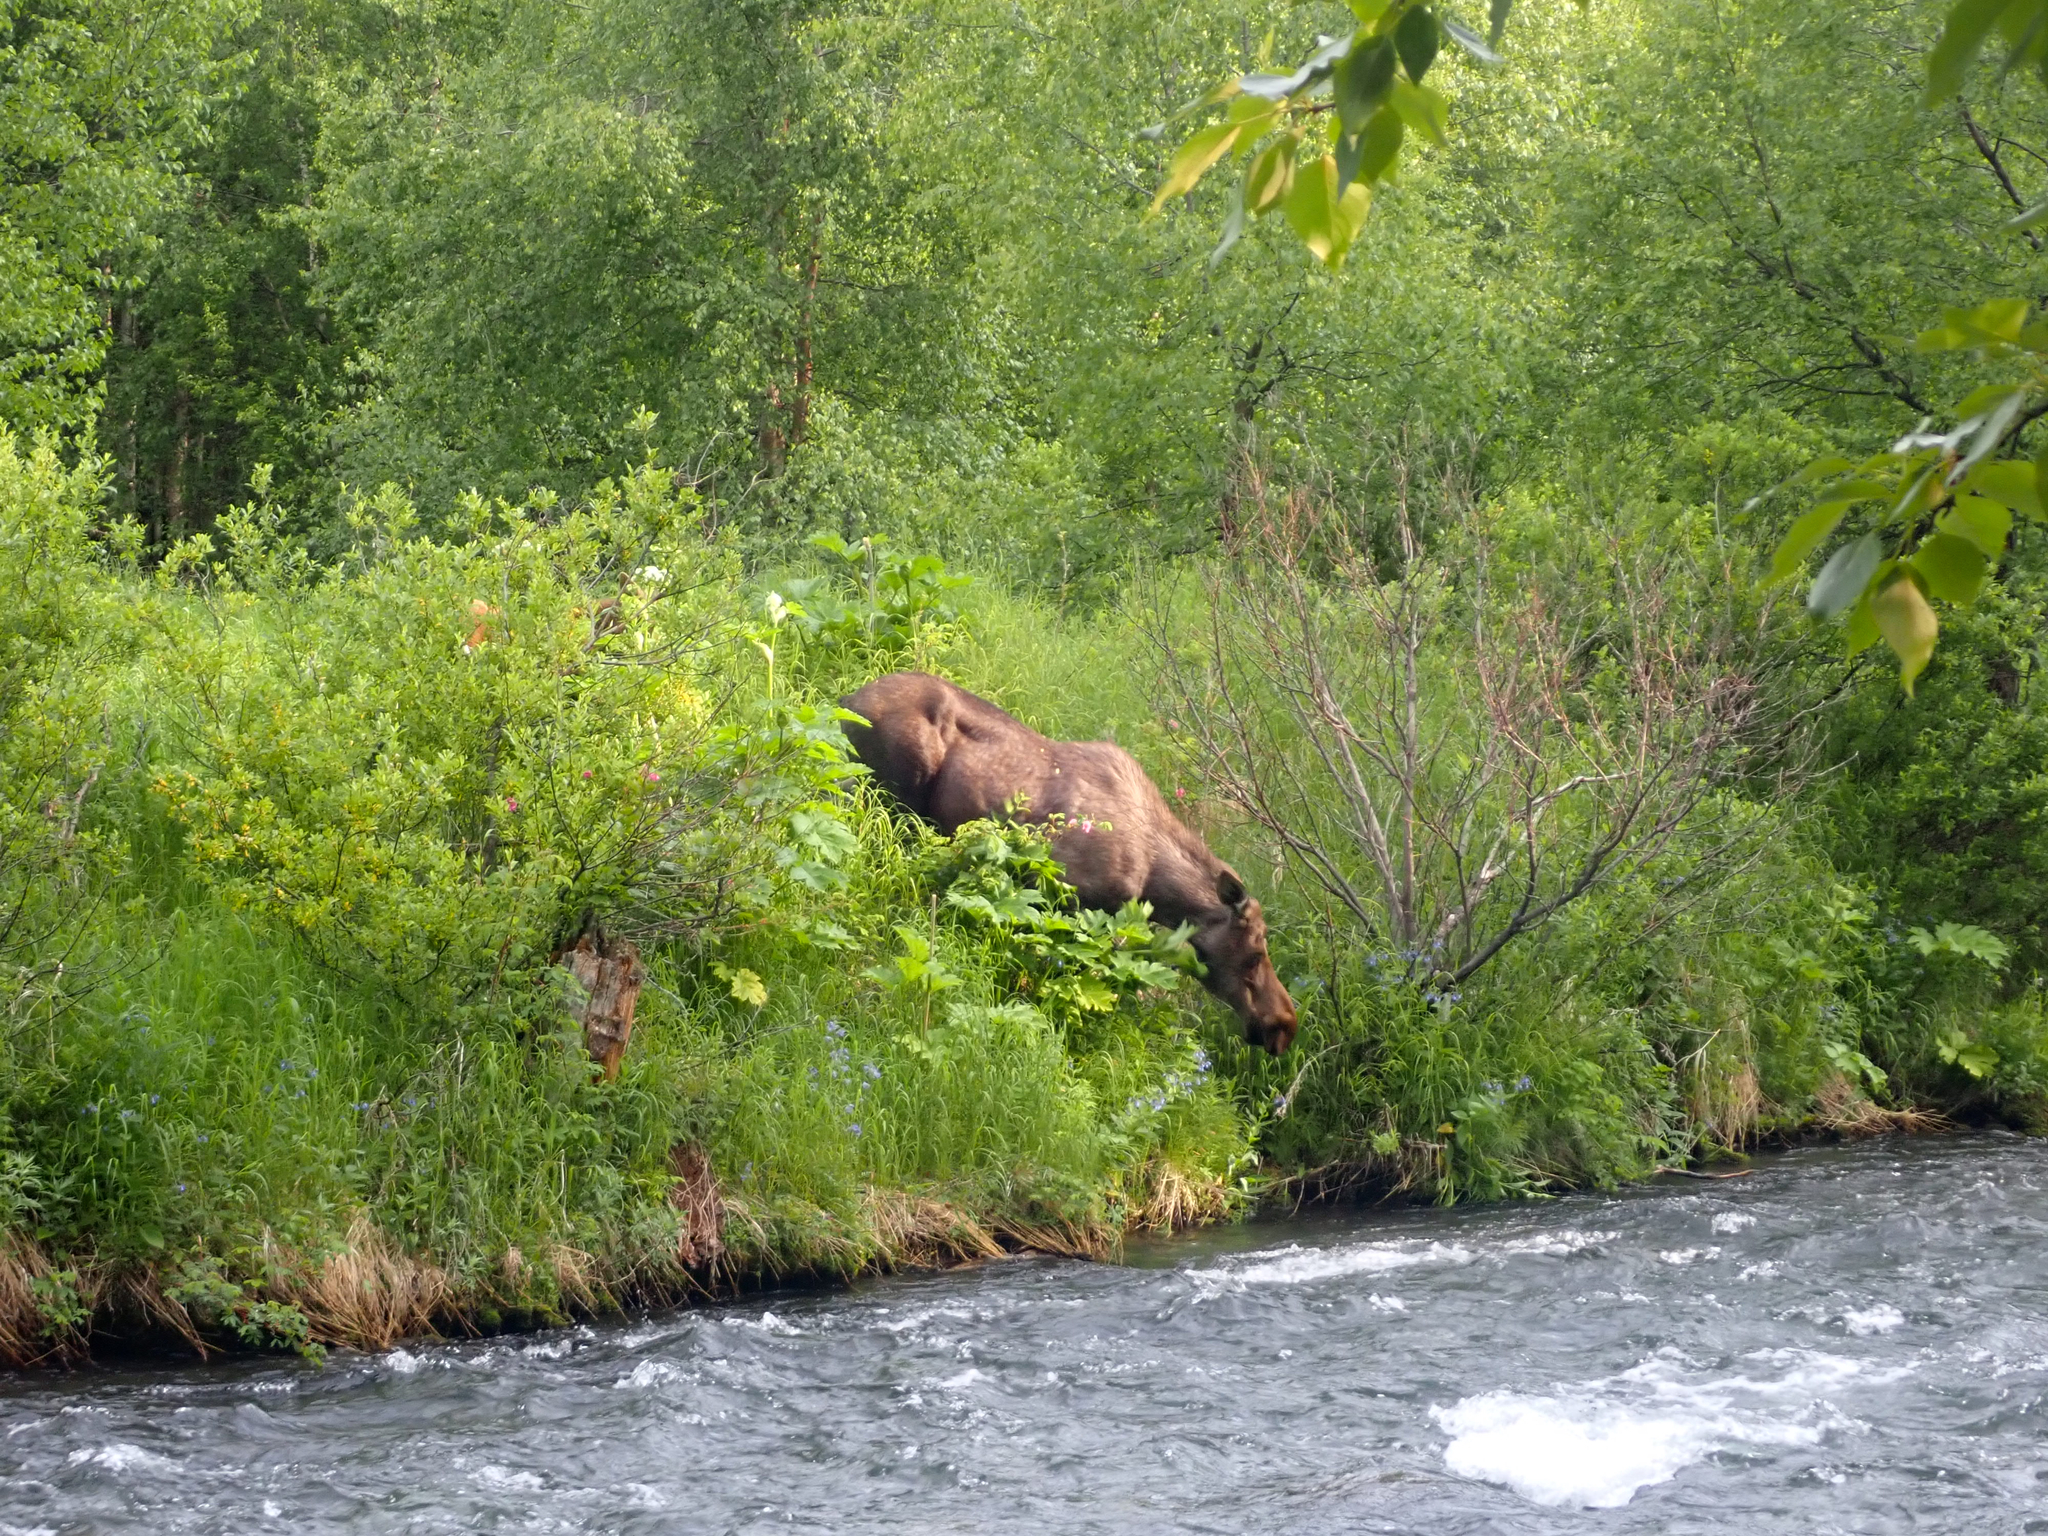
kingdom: Animalia
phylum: Chordata
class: Mammalia
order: Artiodactyla
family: Cervidae
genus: Alces
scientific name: Alces alces
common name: Moose
